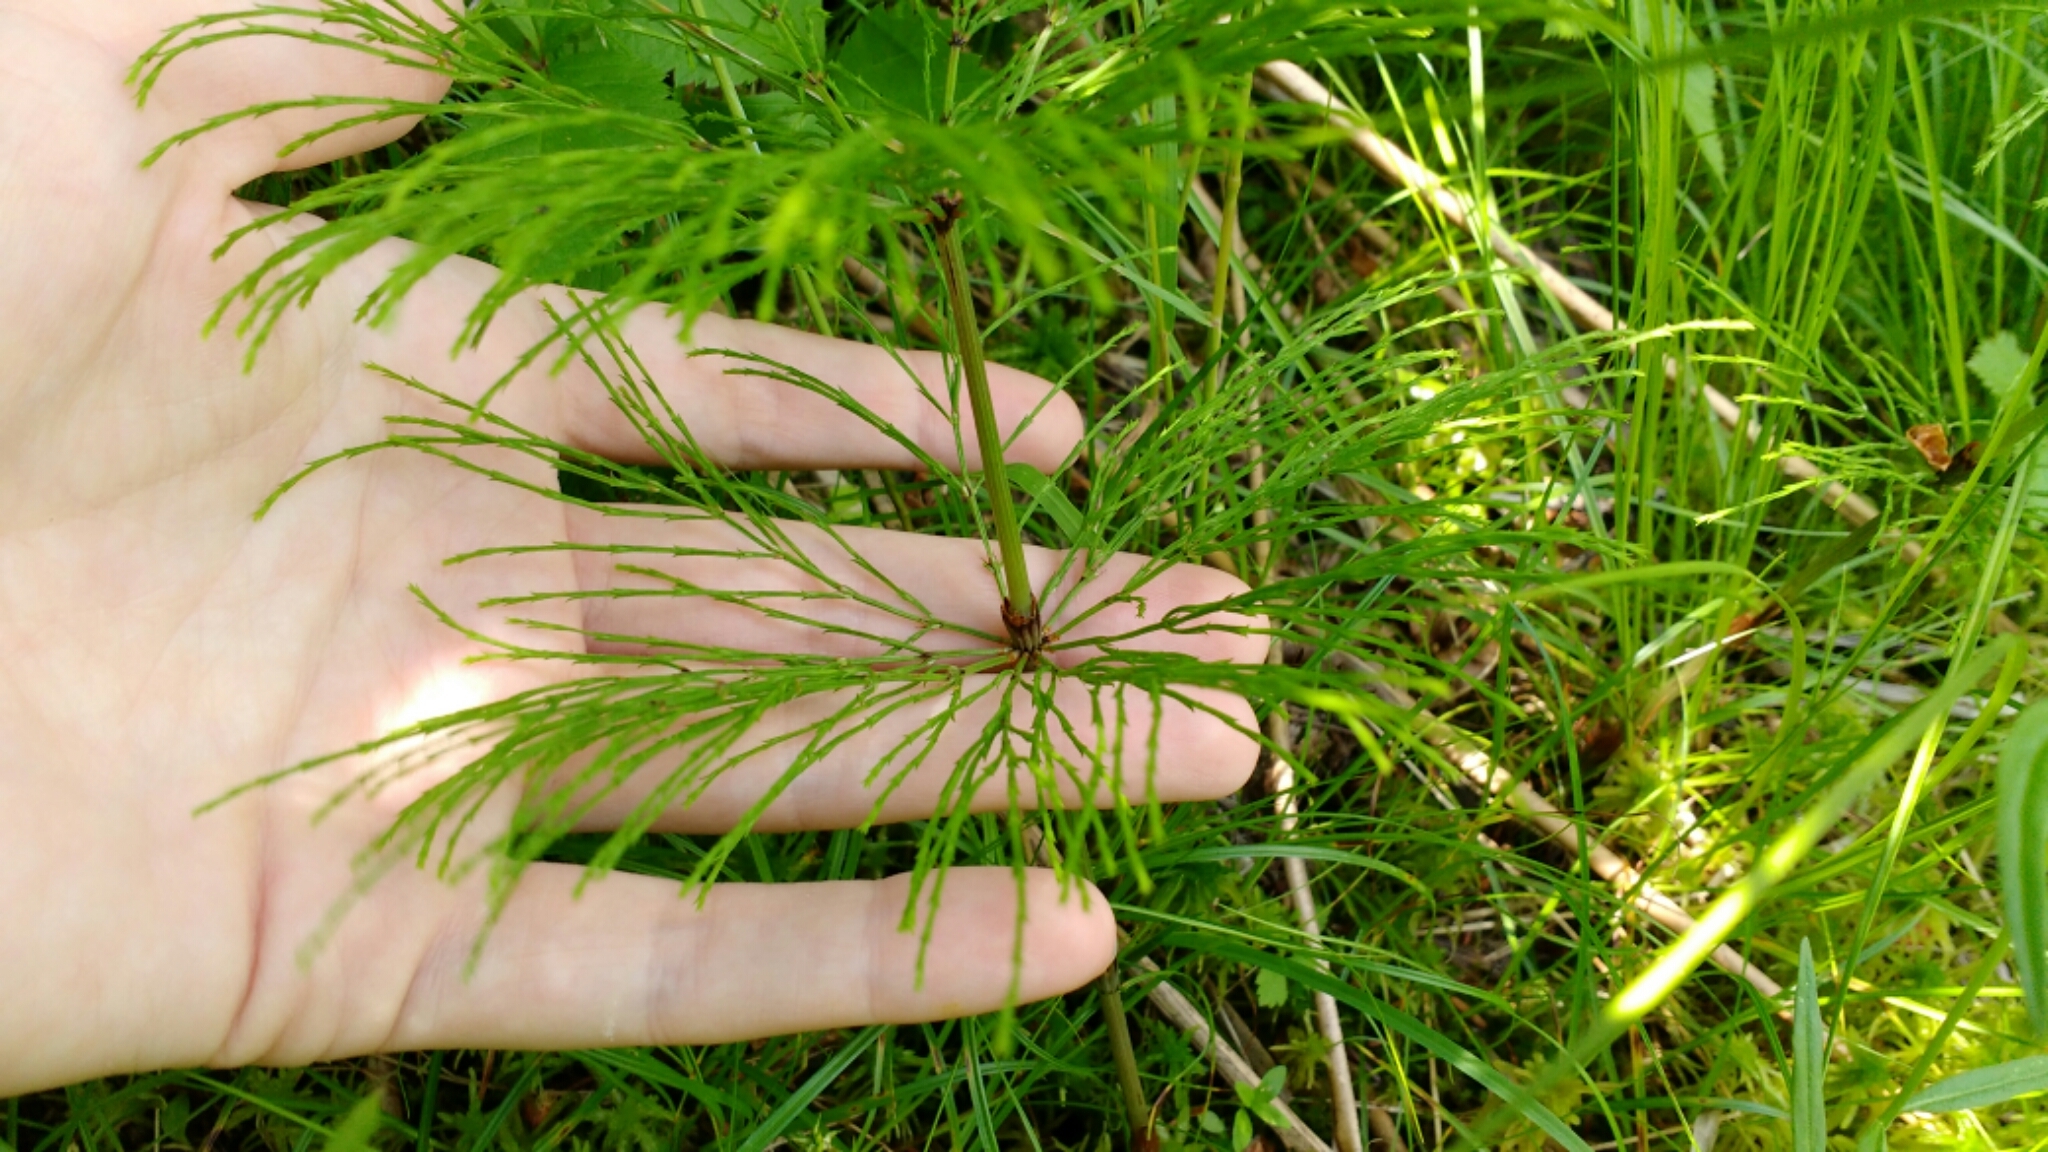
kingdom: Plantae
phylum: Tracheophyta
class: Polypodiopsida
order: Equisetales
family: Equisetaceae
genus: Equisetum
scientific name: Equisetum sylvaticum
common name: Wood horsetail
